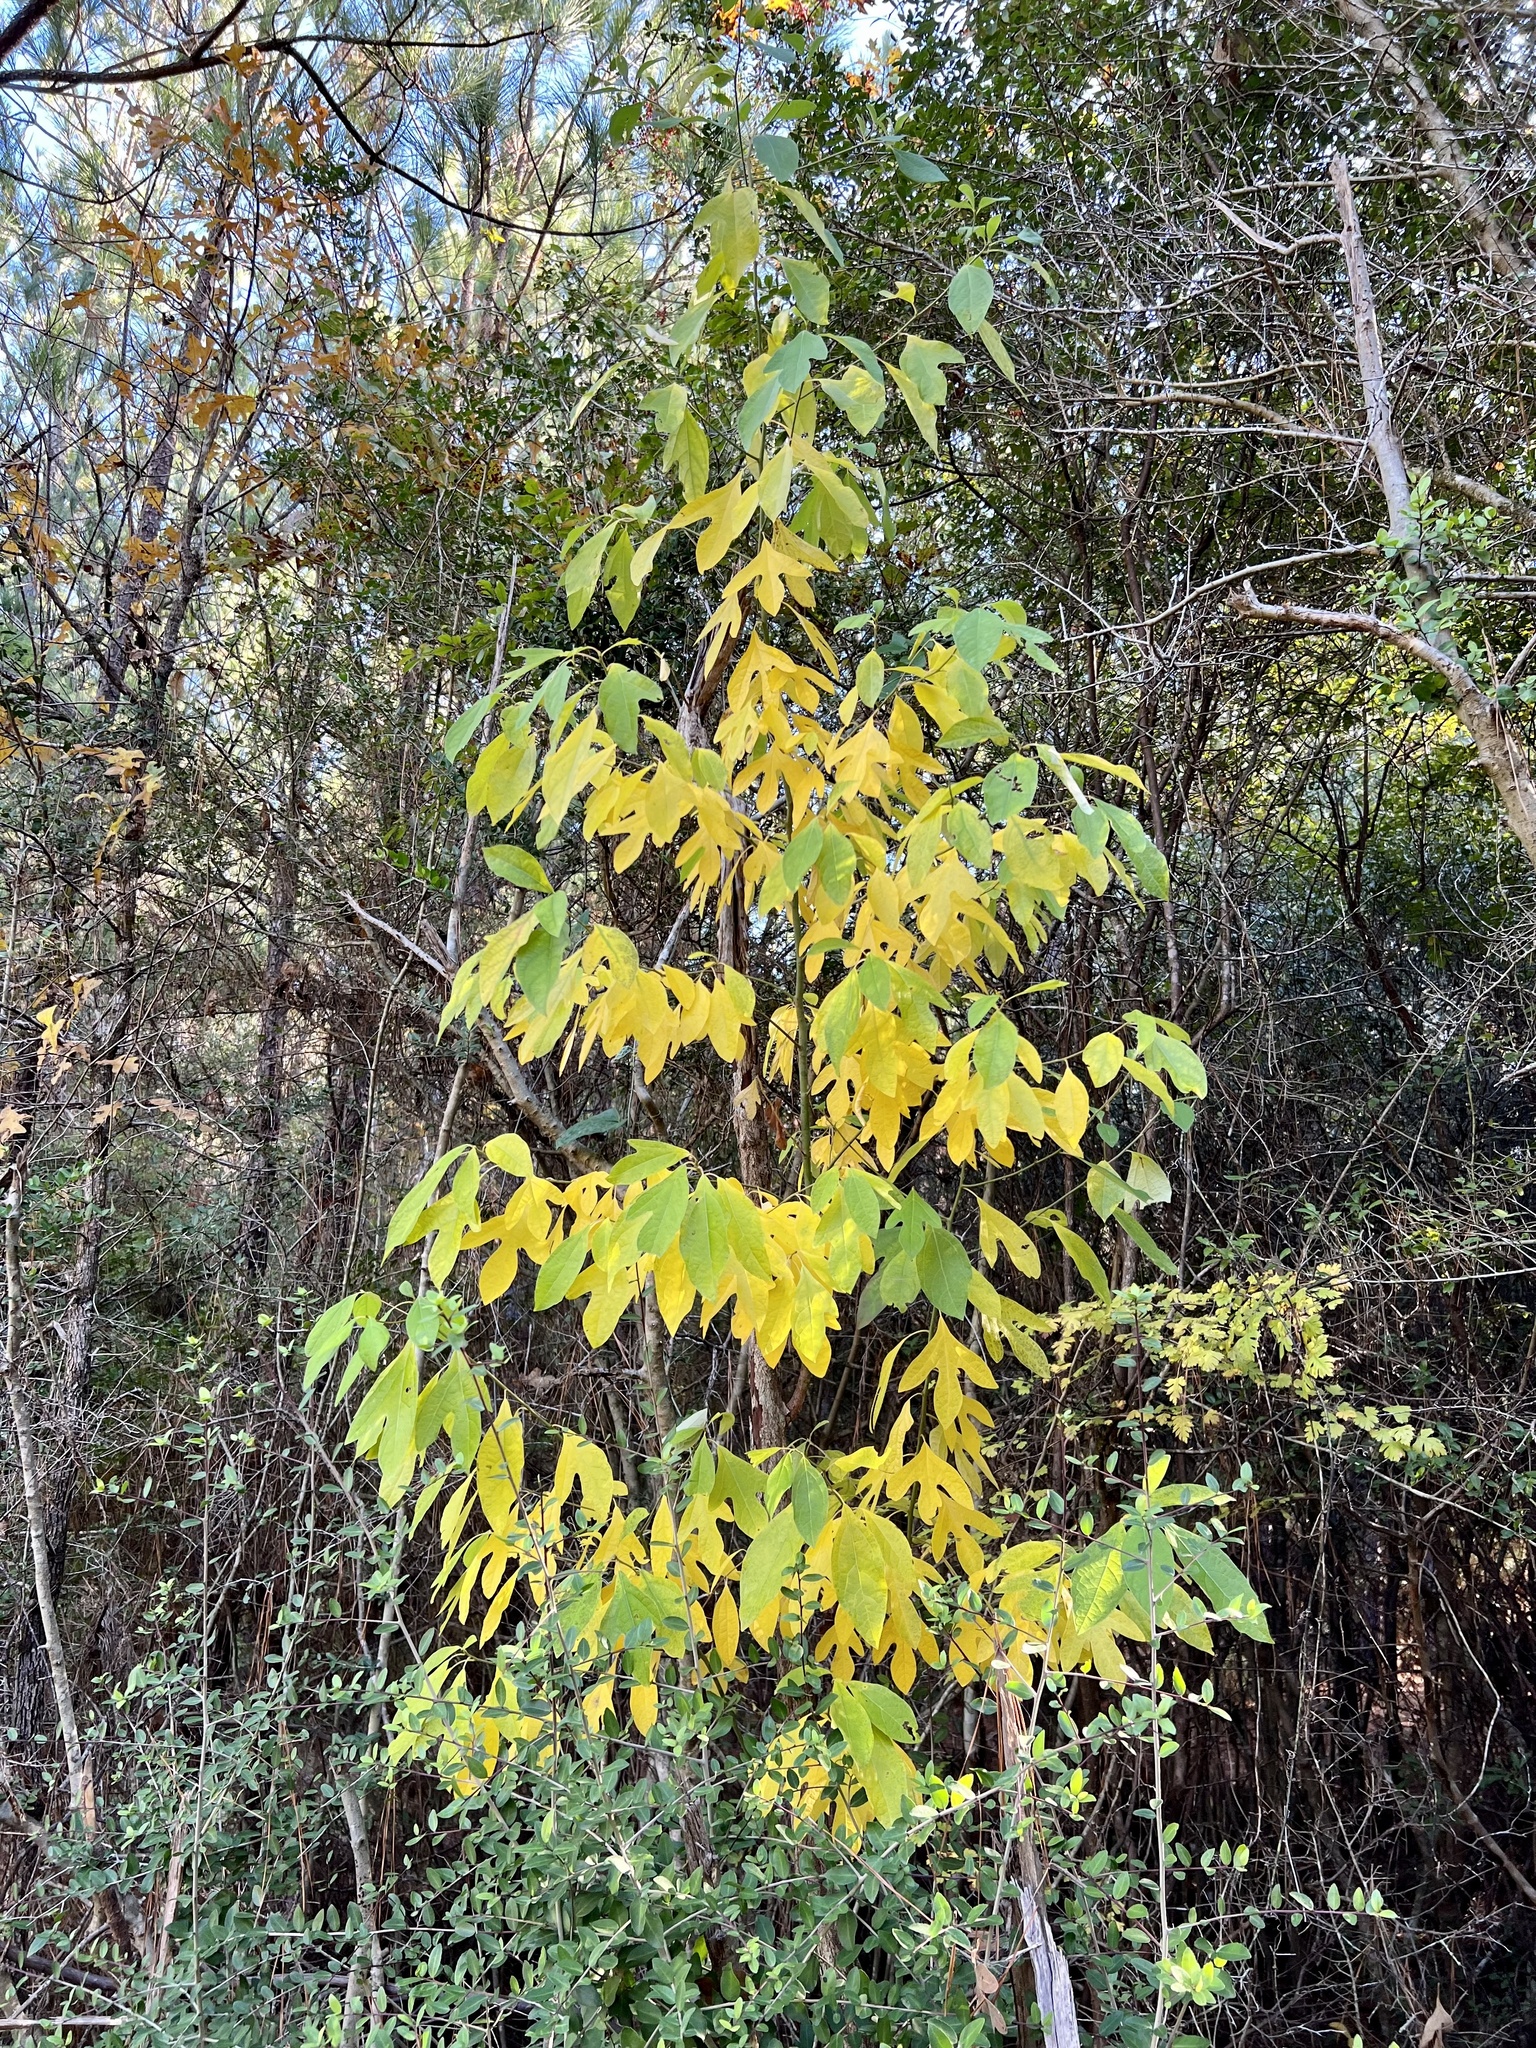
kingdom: Plantae
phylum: Tracheophyta
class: Magnoliopsida
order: Laurales
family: Lauraceae
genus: Sassafras
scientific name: Sassafras albidum
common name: Sassafras
